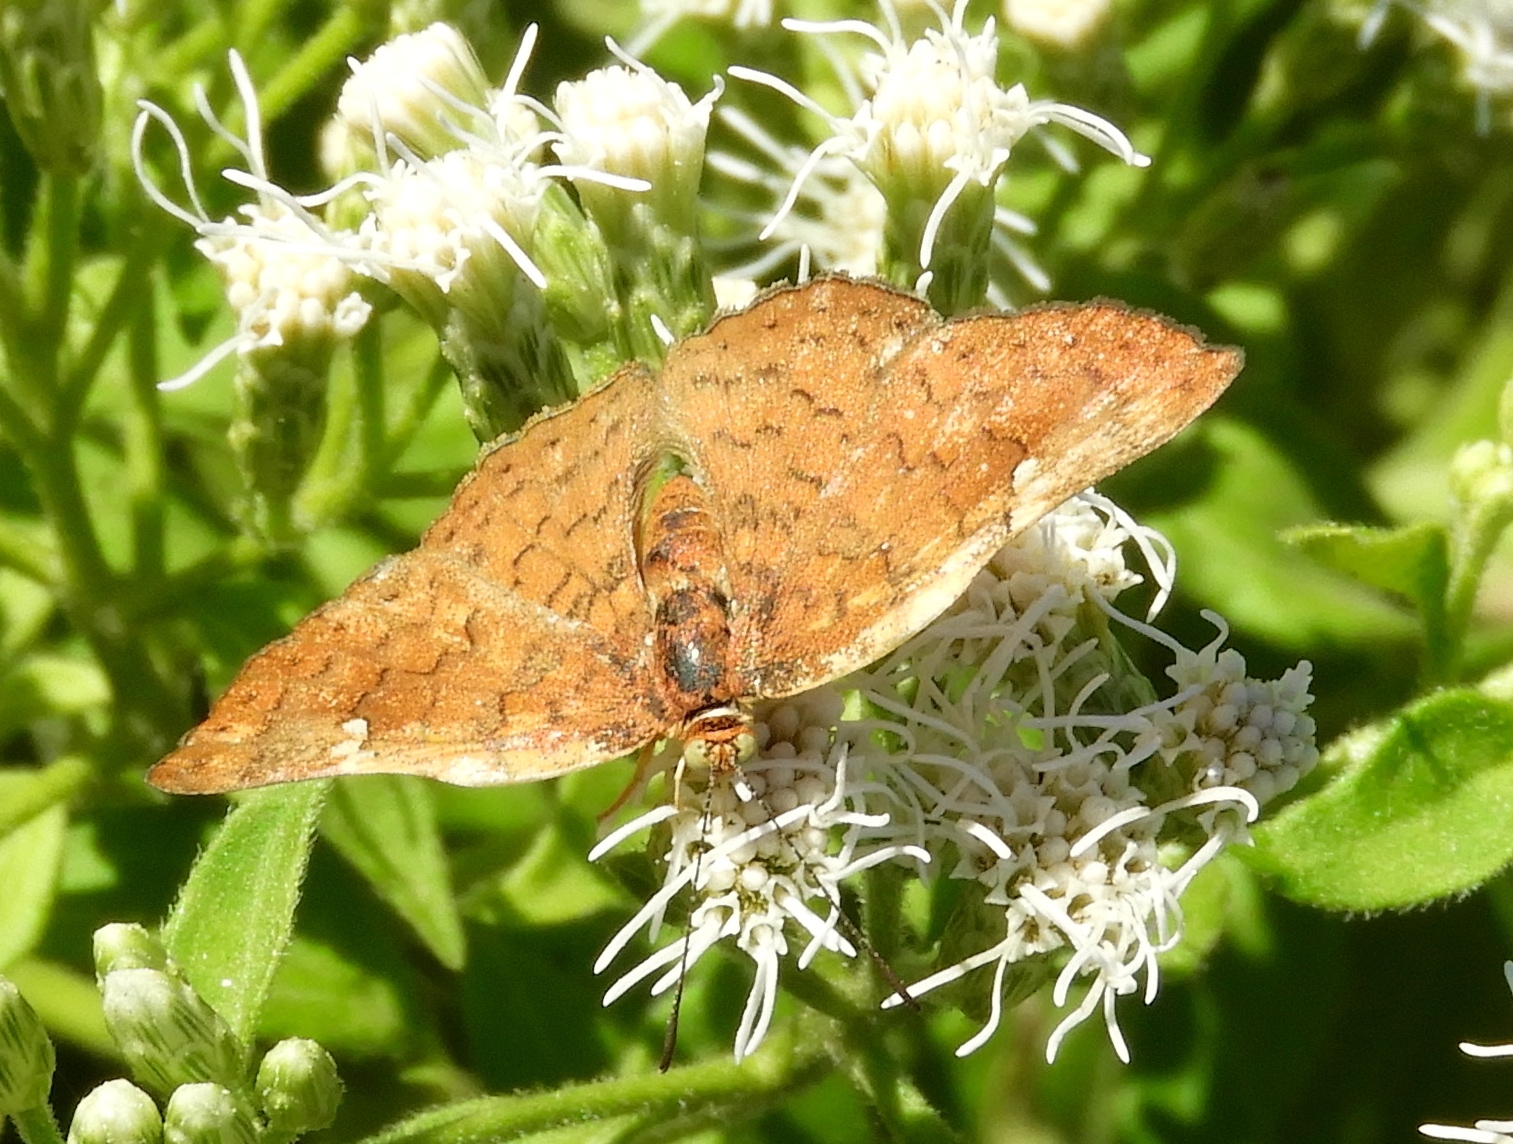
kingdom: Animalia
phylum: Arthropoda
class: Insecta
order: Lepidoptera
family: Riodinidae
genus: Curvie
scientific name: Curvie emesia
